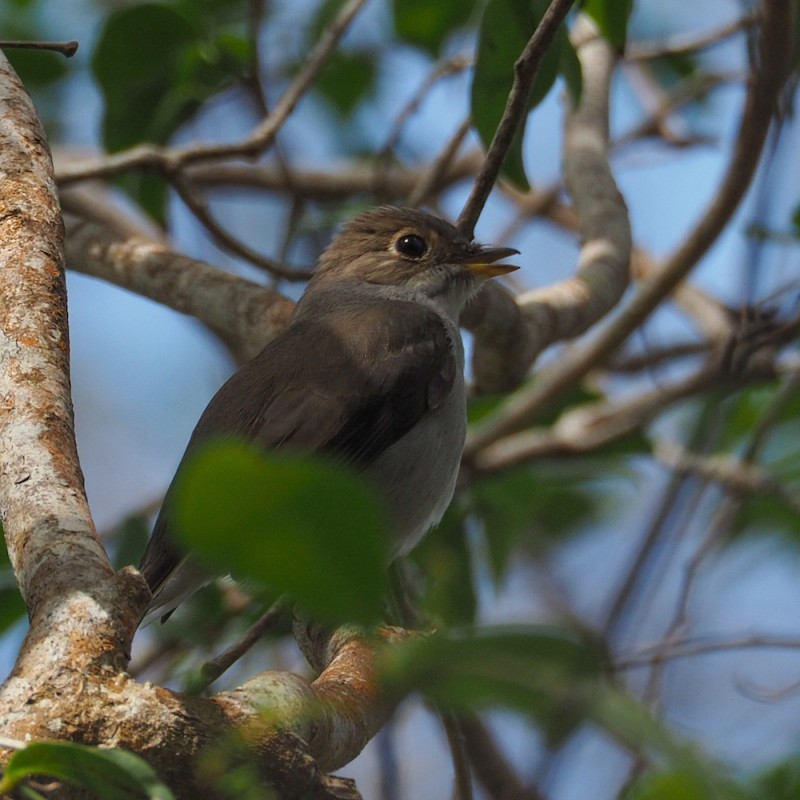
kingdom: Animalia
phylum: Chordata
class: Aves
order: Passeriformes
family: Turdidae
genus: Myadestes
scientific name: Myadestes elisabeth
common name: Cuban solitaire
